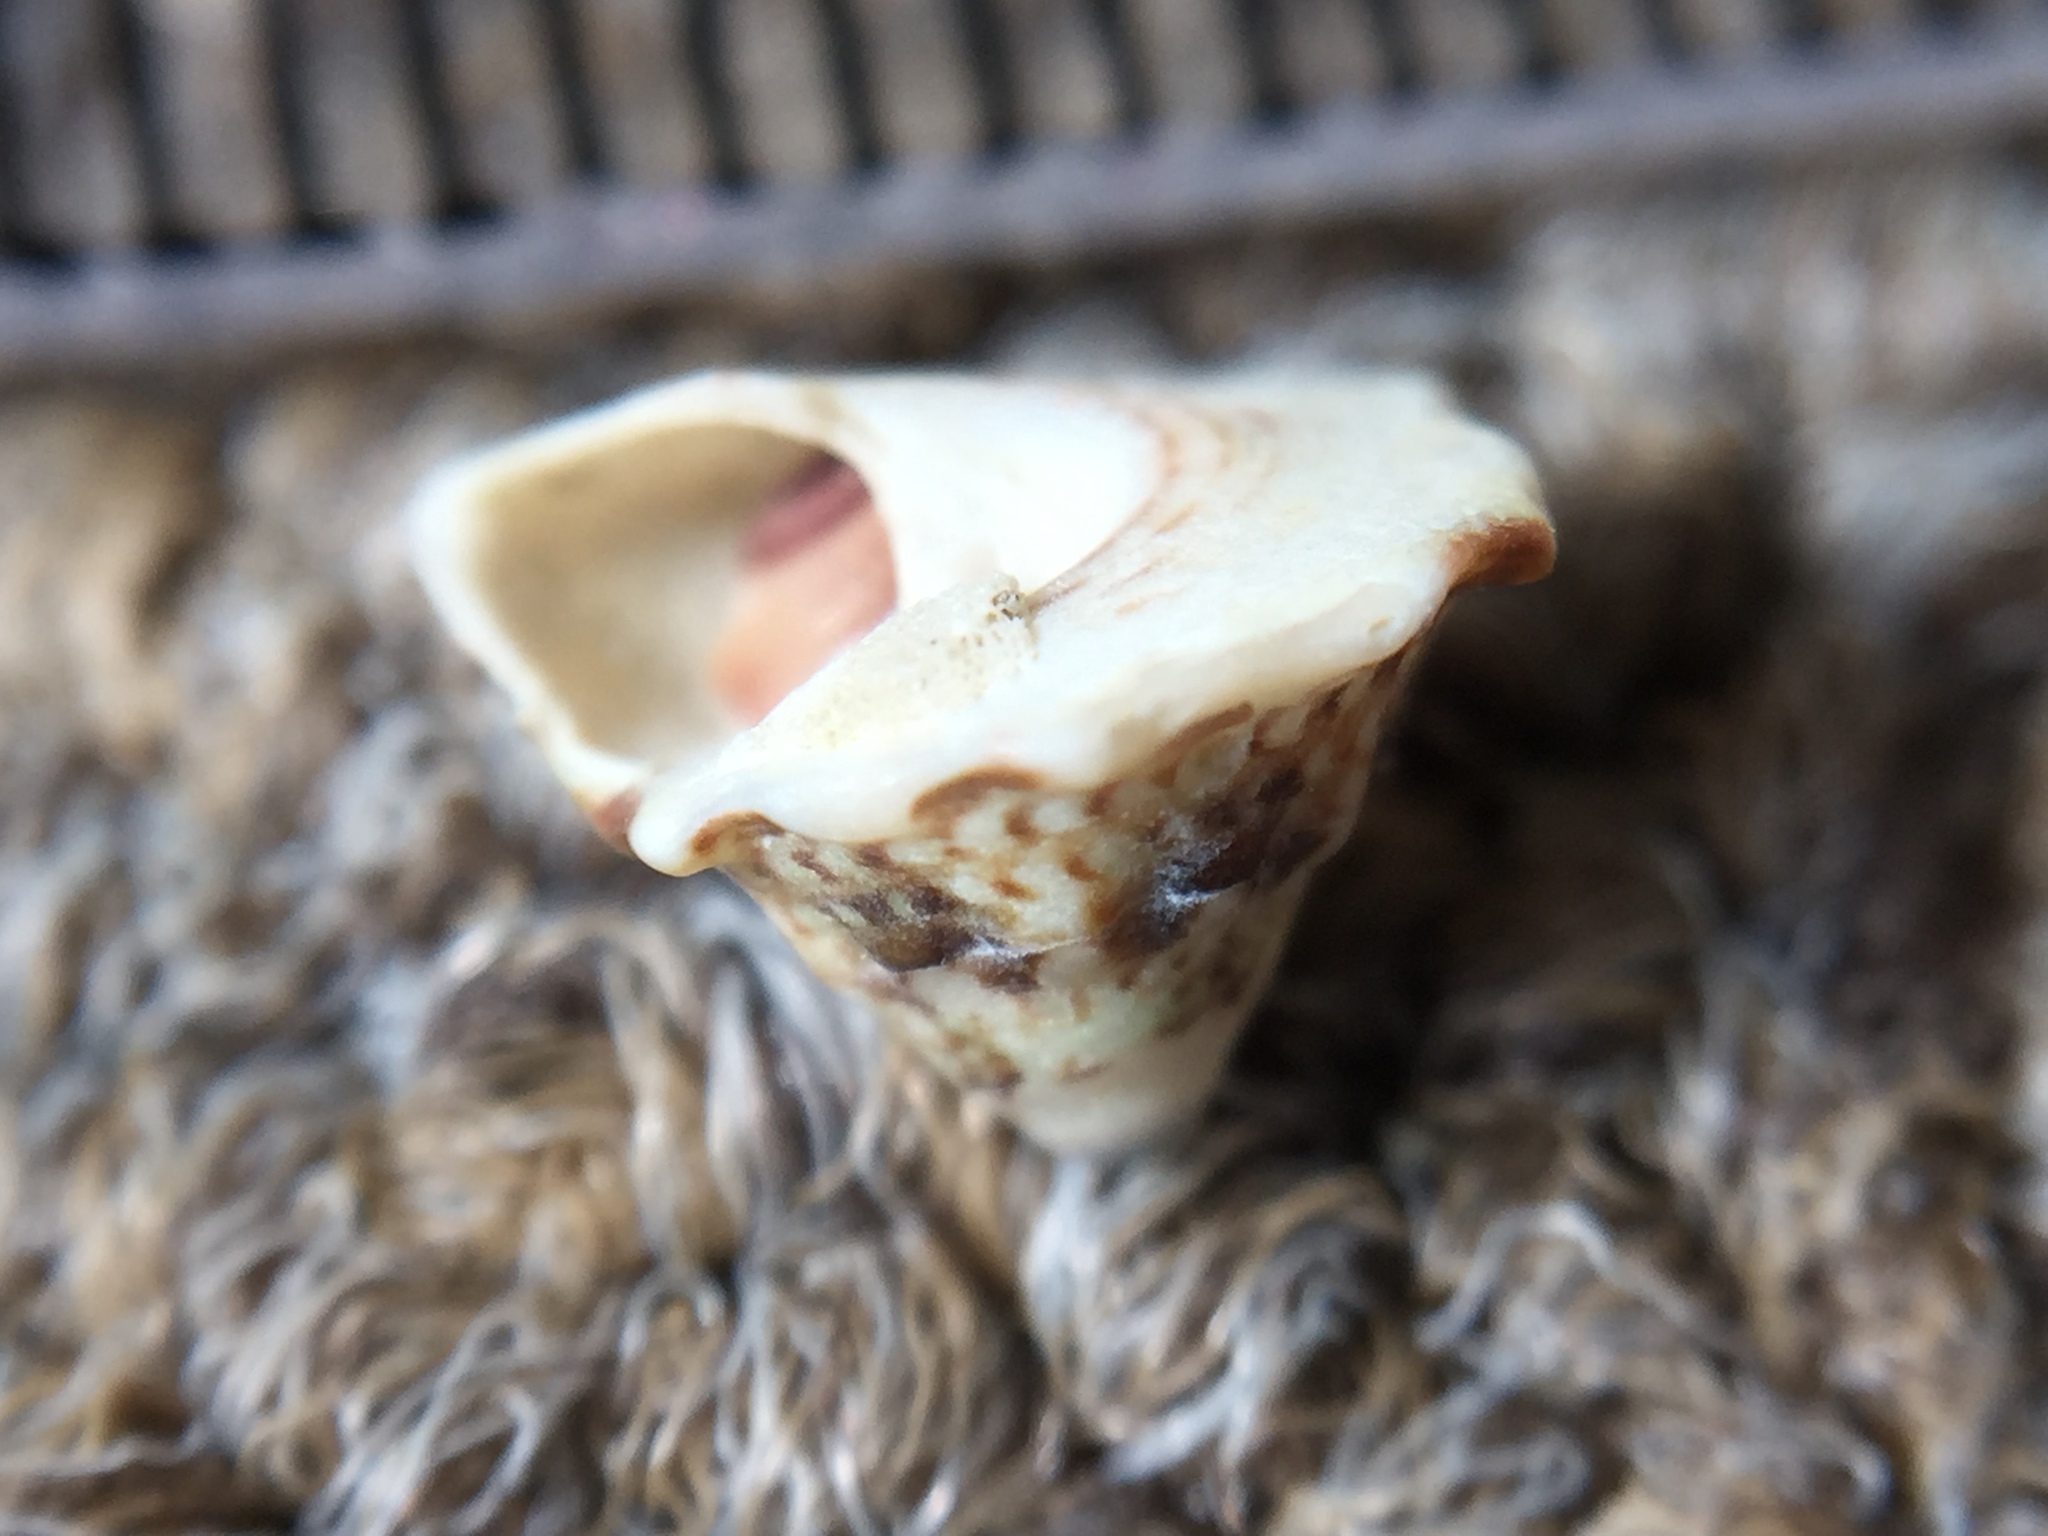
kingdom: Animalia
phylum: Mollusca
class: Gastropoda
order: Trochida
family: Trochidae
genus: Coelotrochus
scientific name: Coelotrochus viridis
